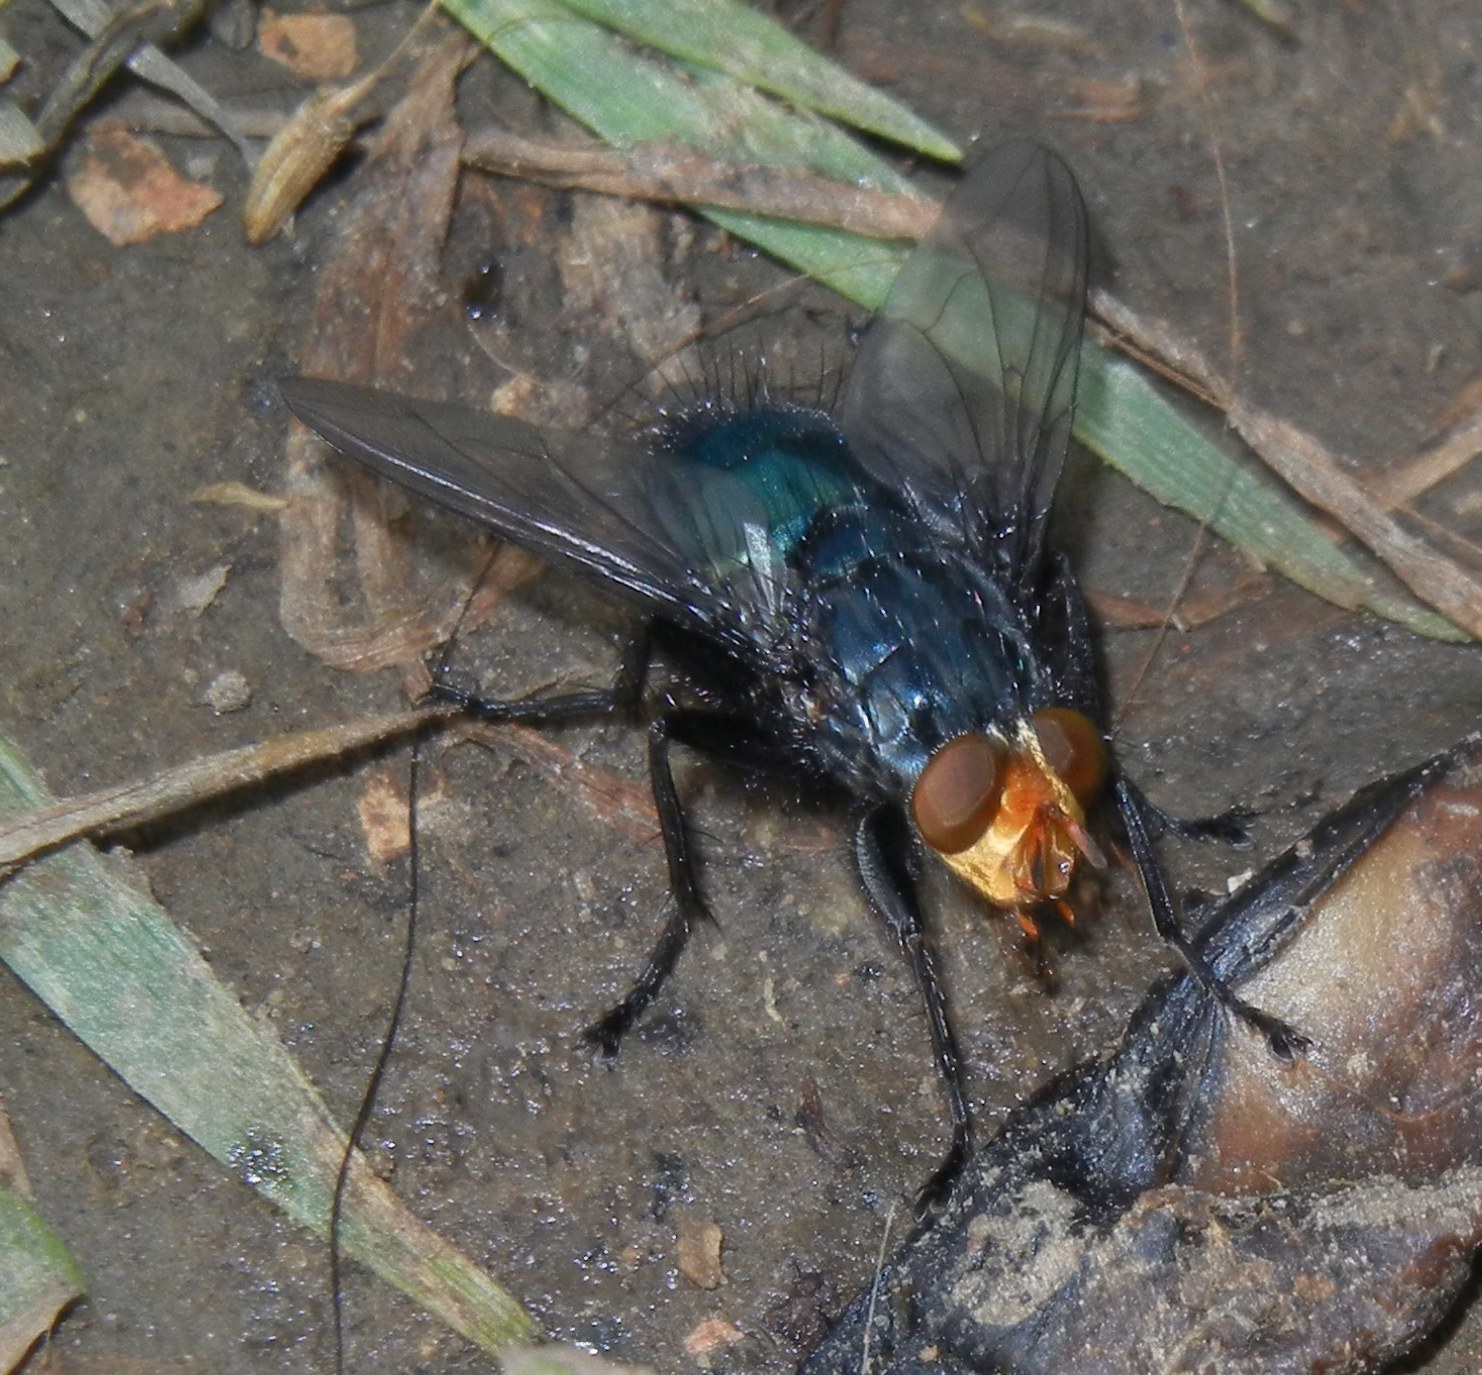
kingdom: Animalia
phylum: Arthropoda
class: Insecta
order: Diptera
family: Calliphoridae
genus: Cynomya
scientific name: Cynomya mortuorum
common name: Bluebottle blow fly
